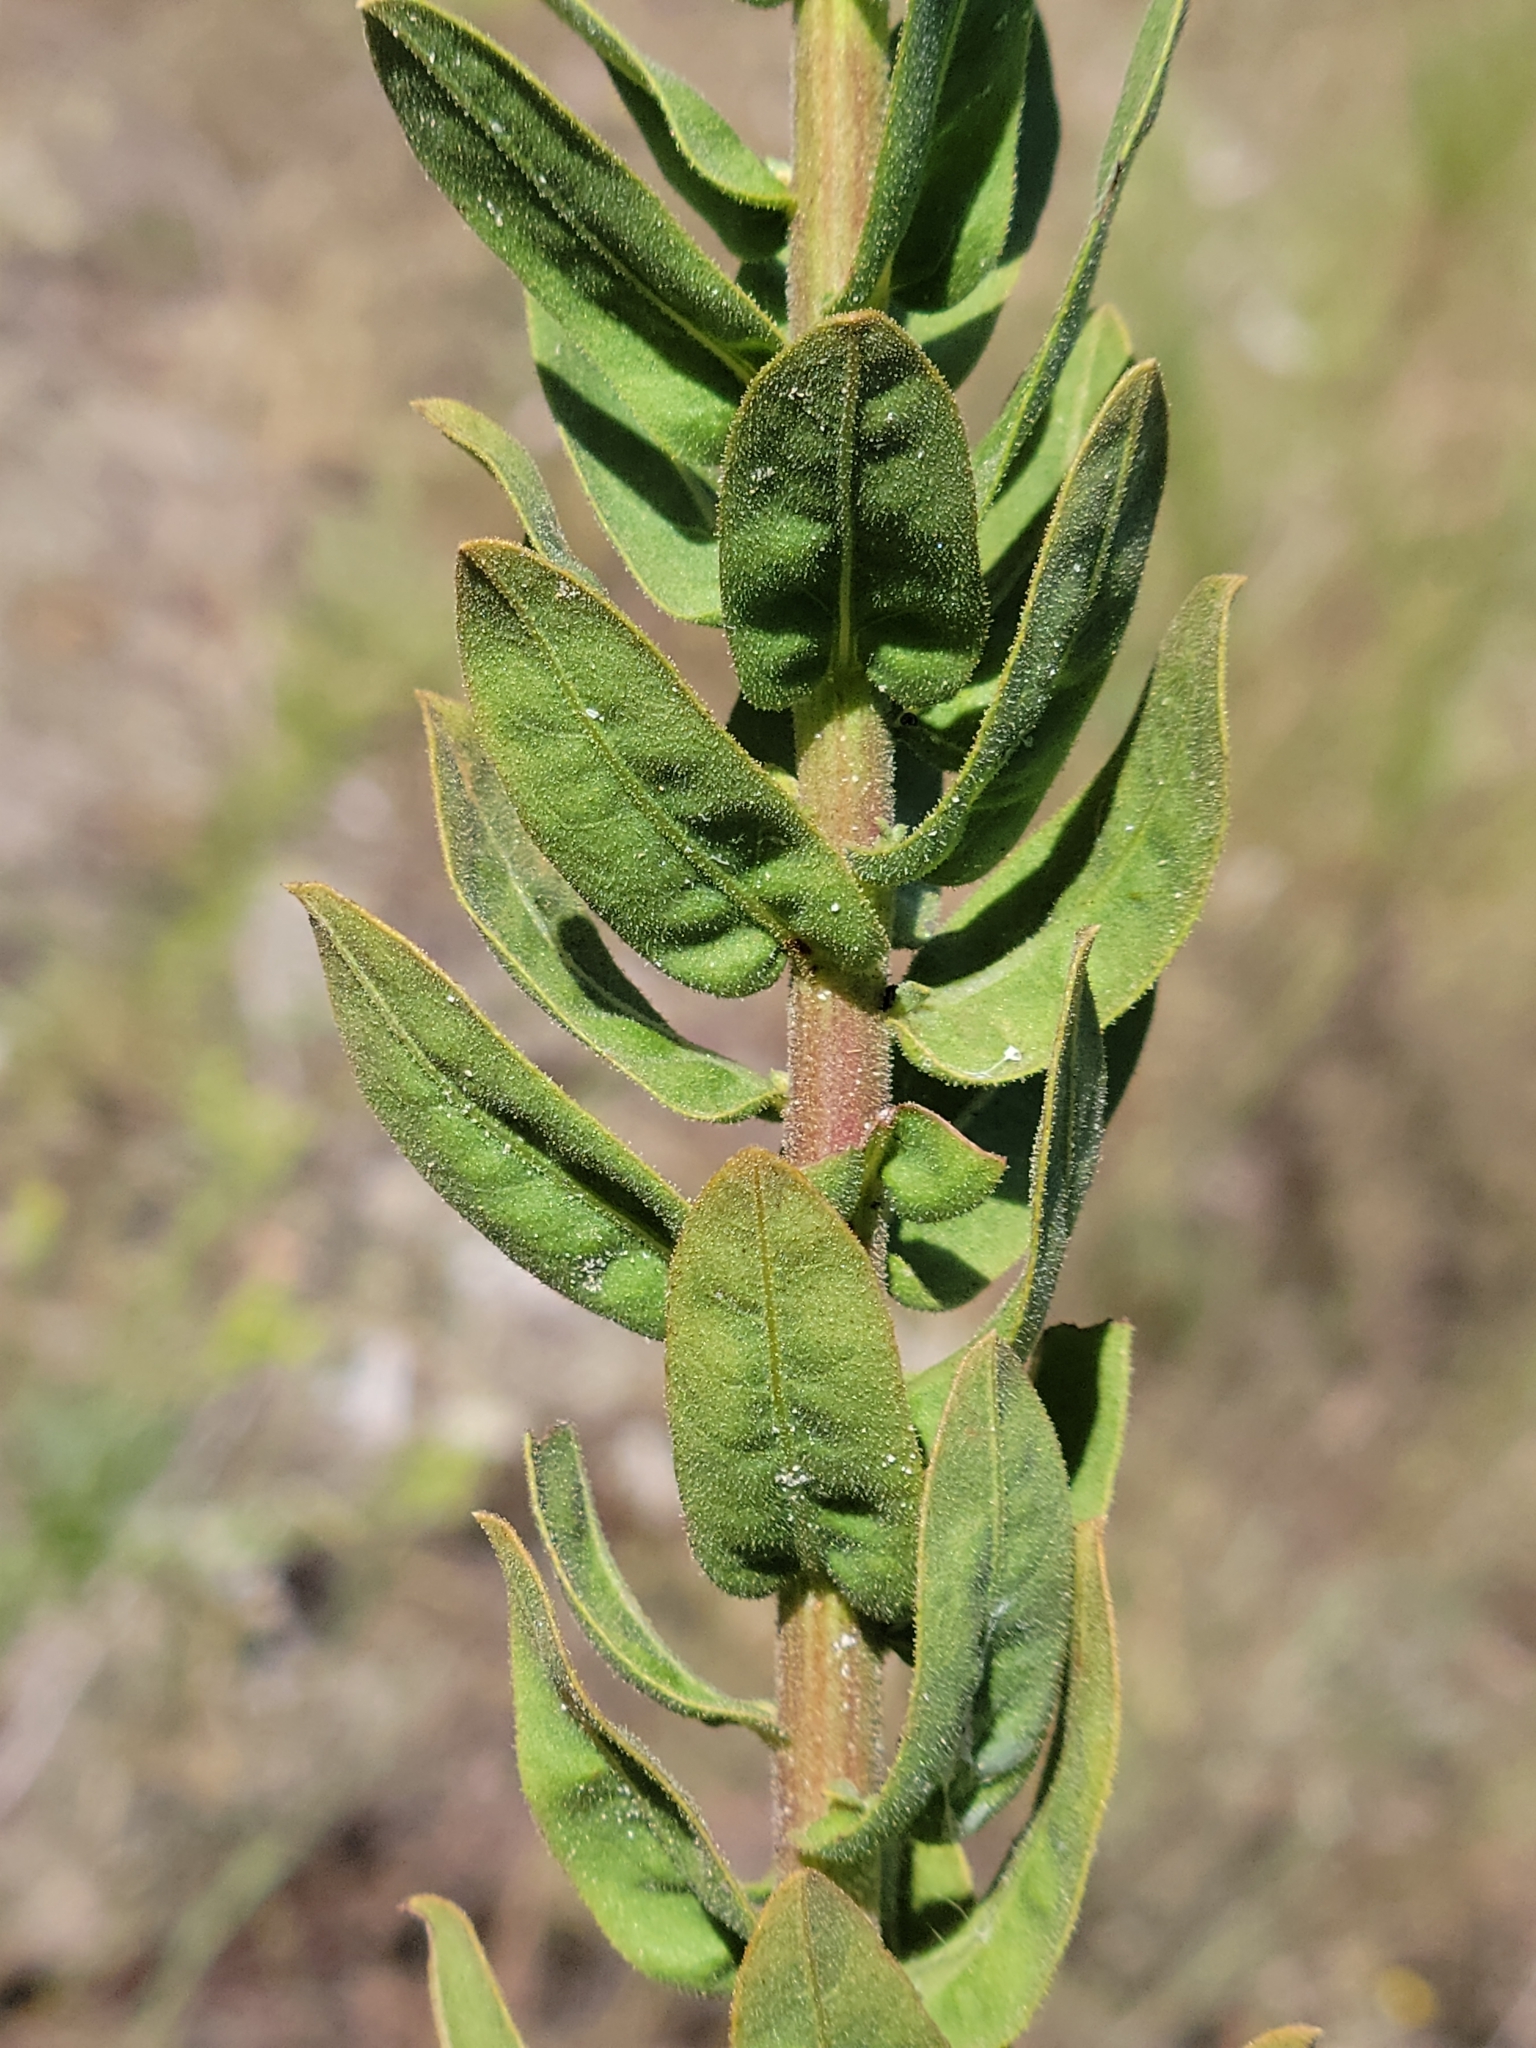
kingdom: Plantae
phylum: Tracheophyta
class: Magnoliopsida
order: Asterales
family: Asteraceae
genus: Chrysopsis
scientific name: Chrysopsis scabrella
